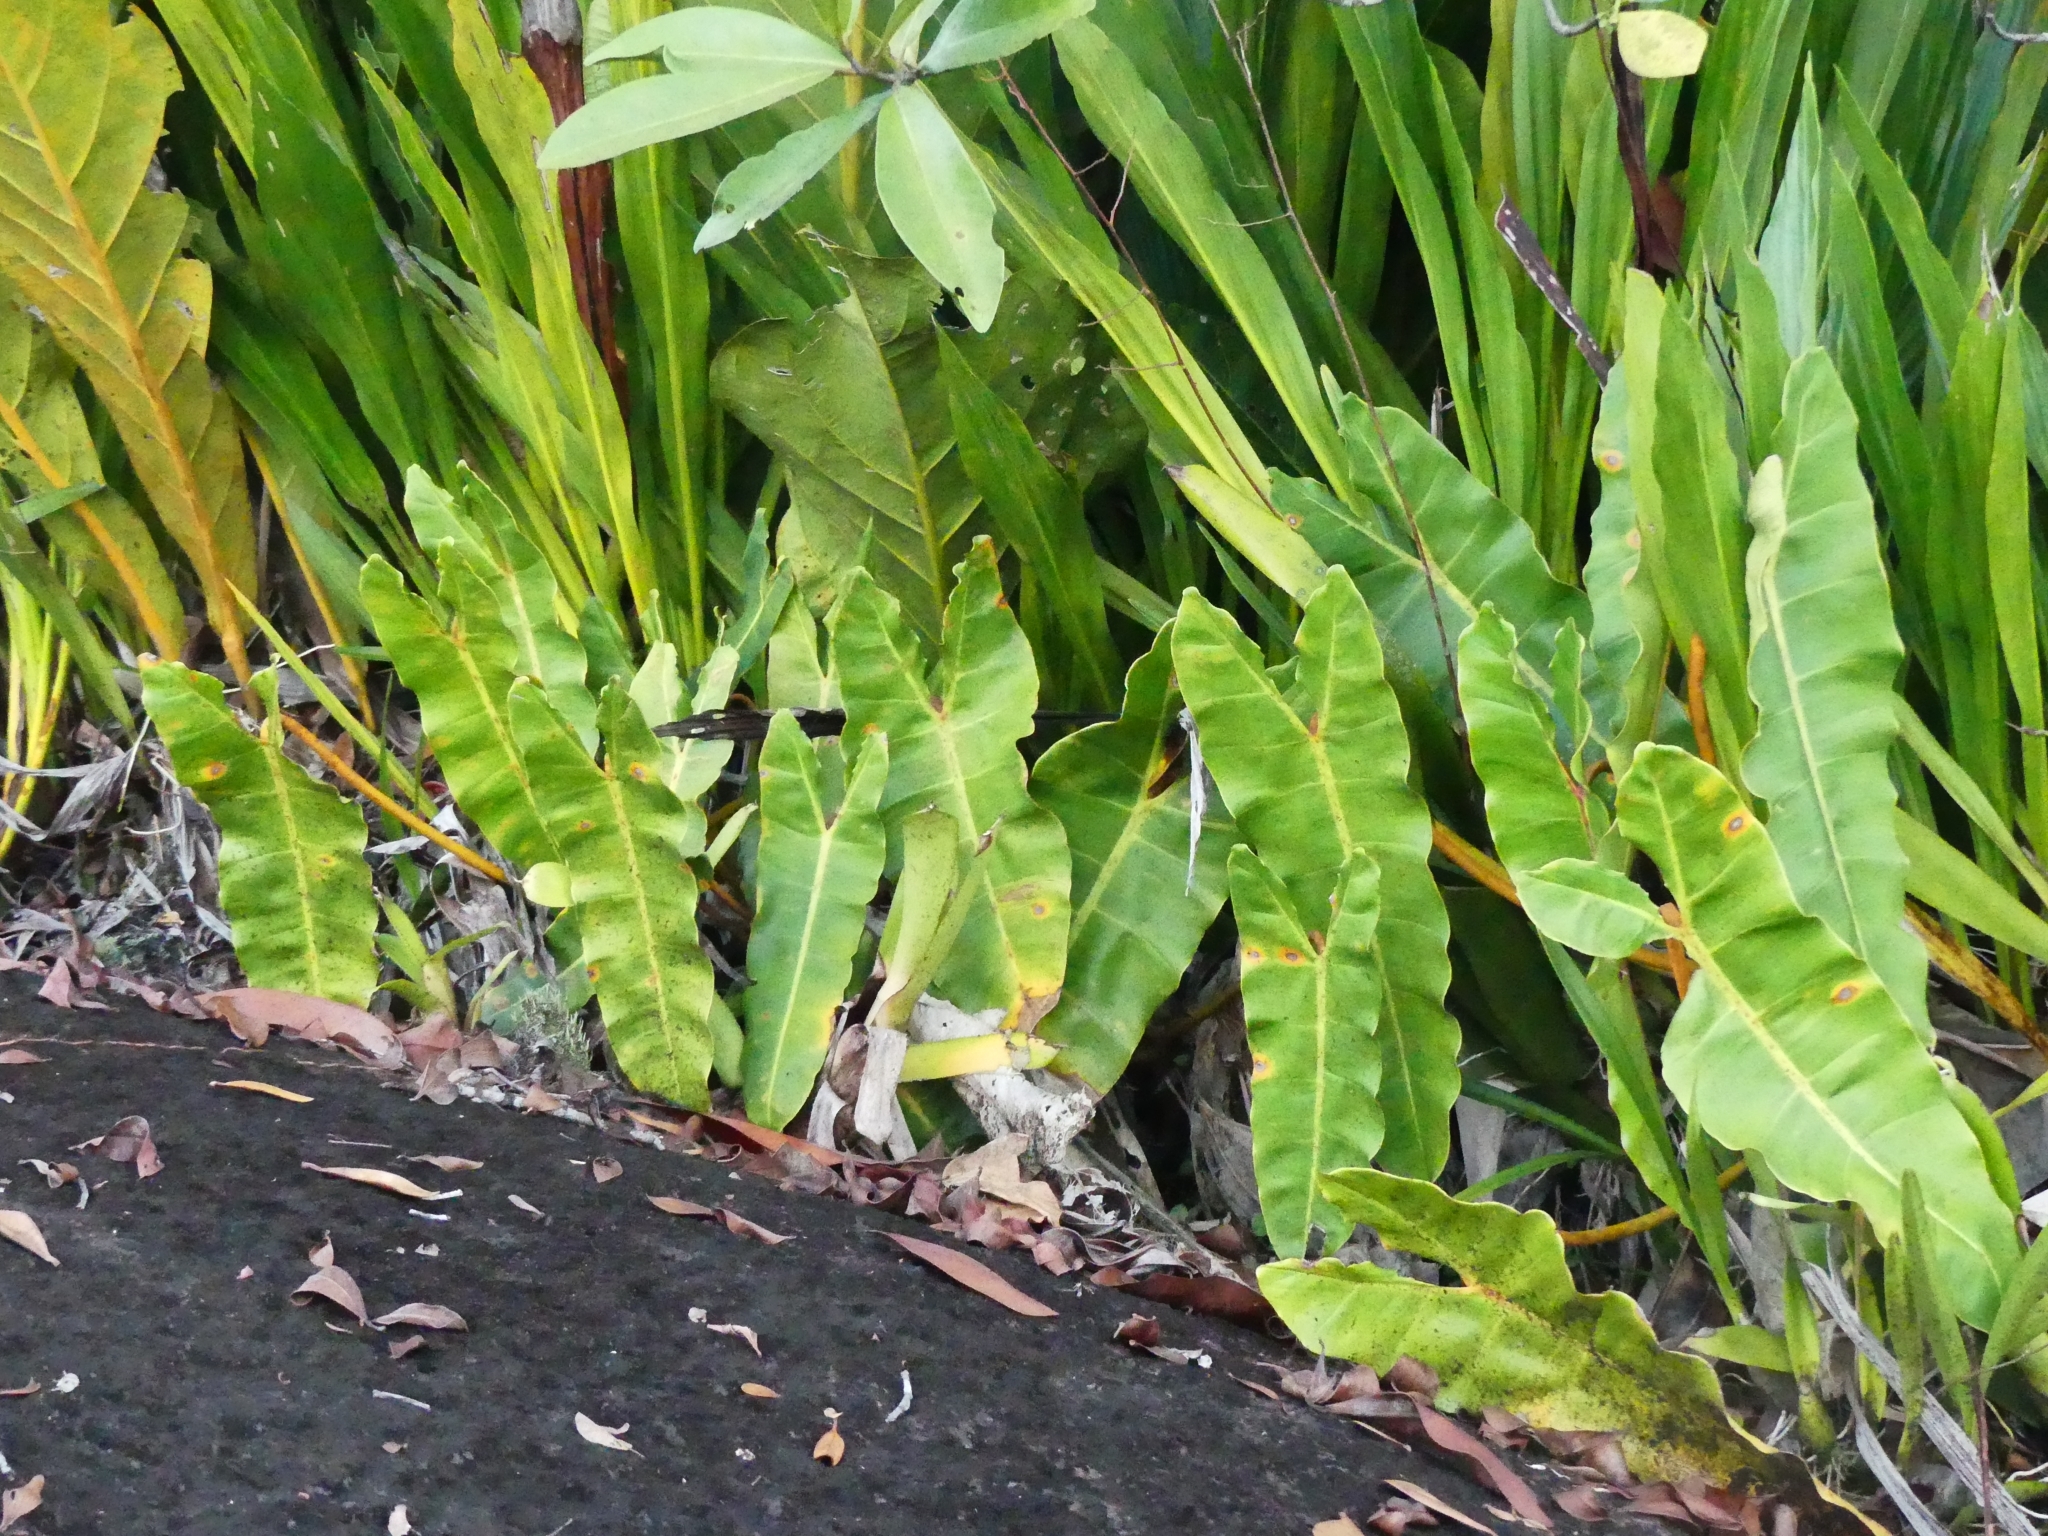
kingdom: Plantae
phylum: Tracheophyta
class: Liliopsida
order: Alismatales
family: Araceae
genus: Philodendron
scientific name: Philodendron billietiae
